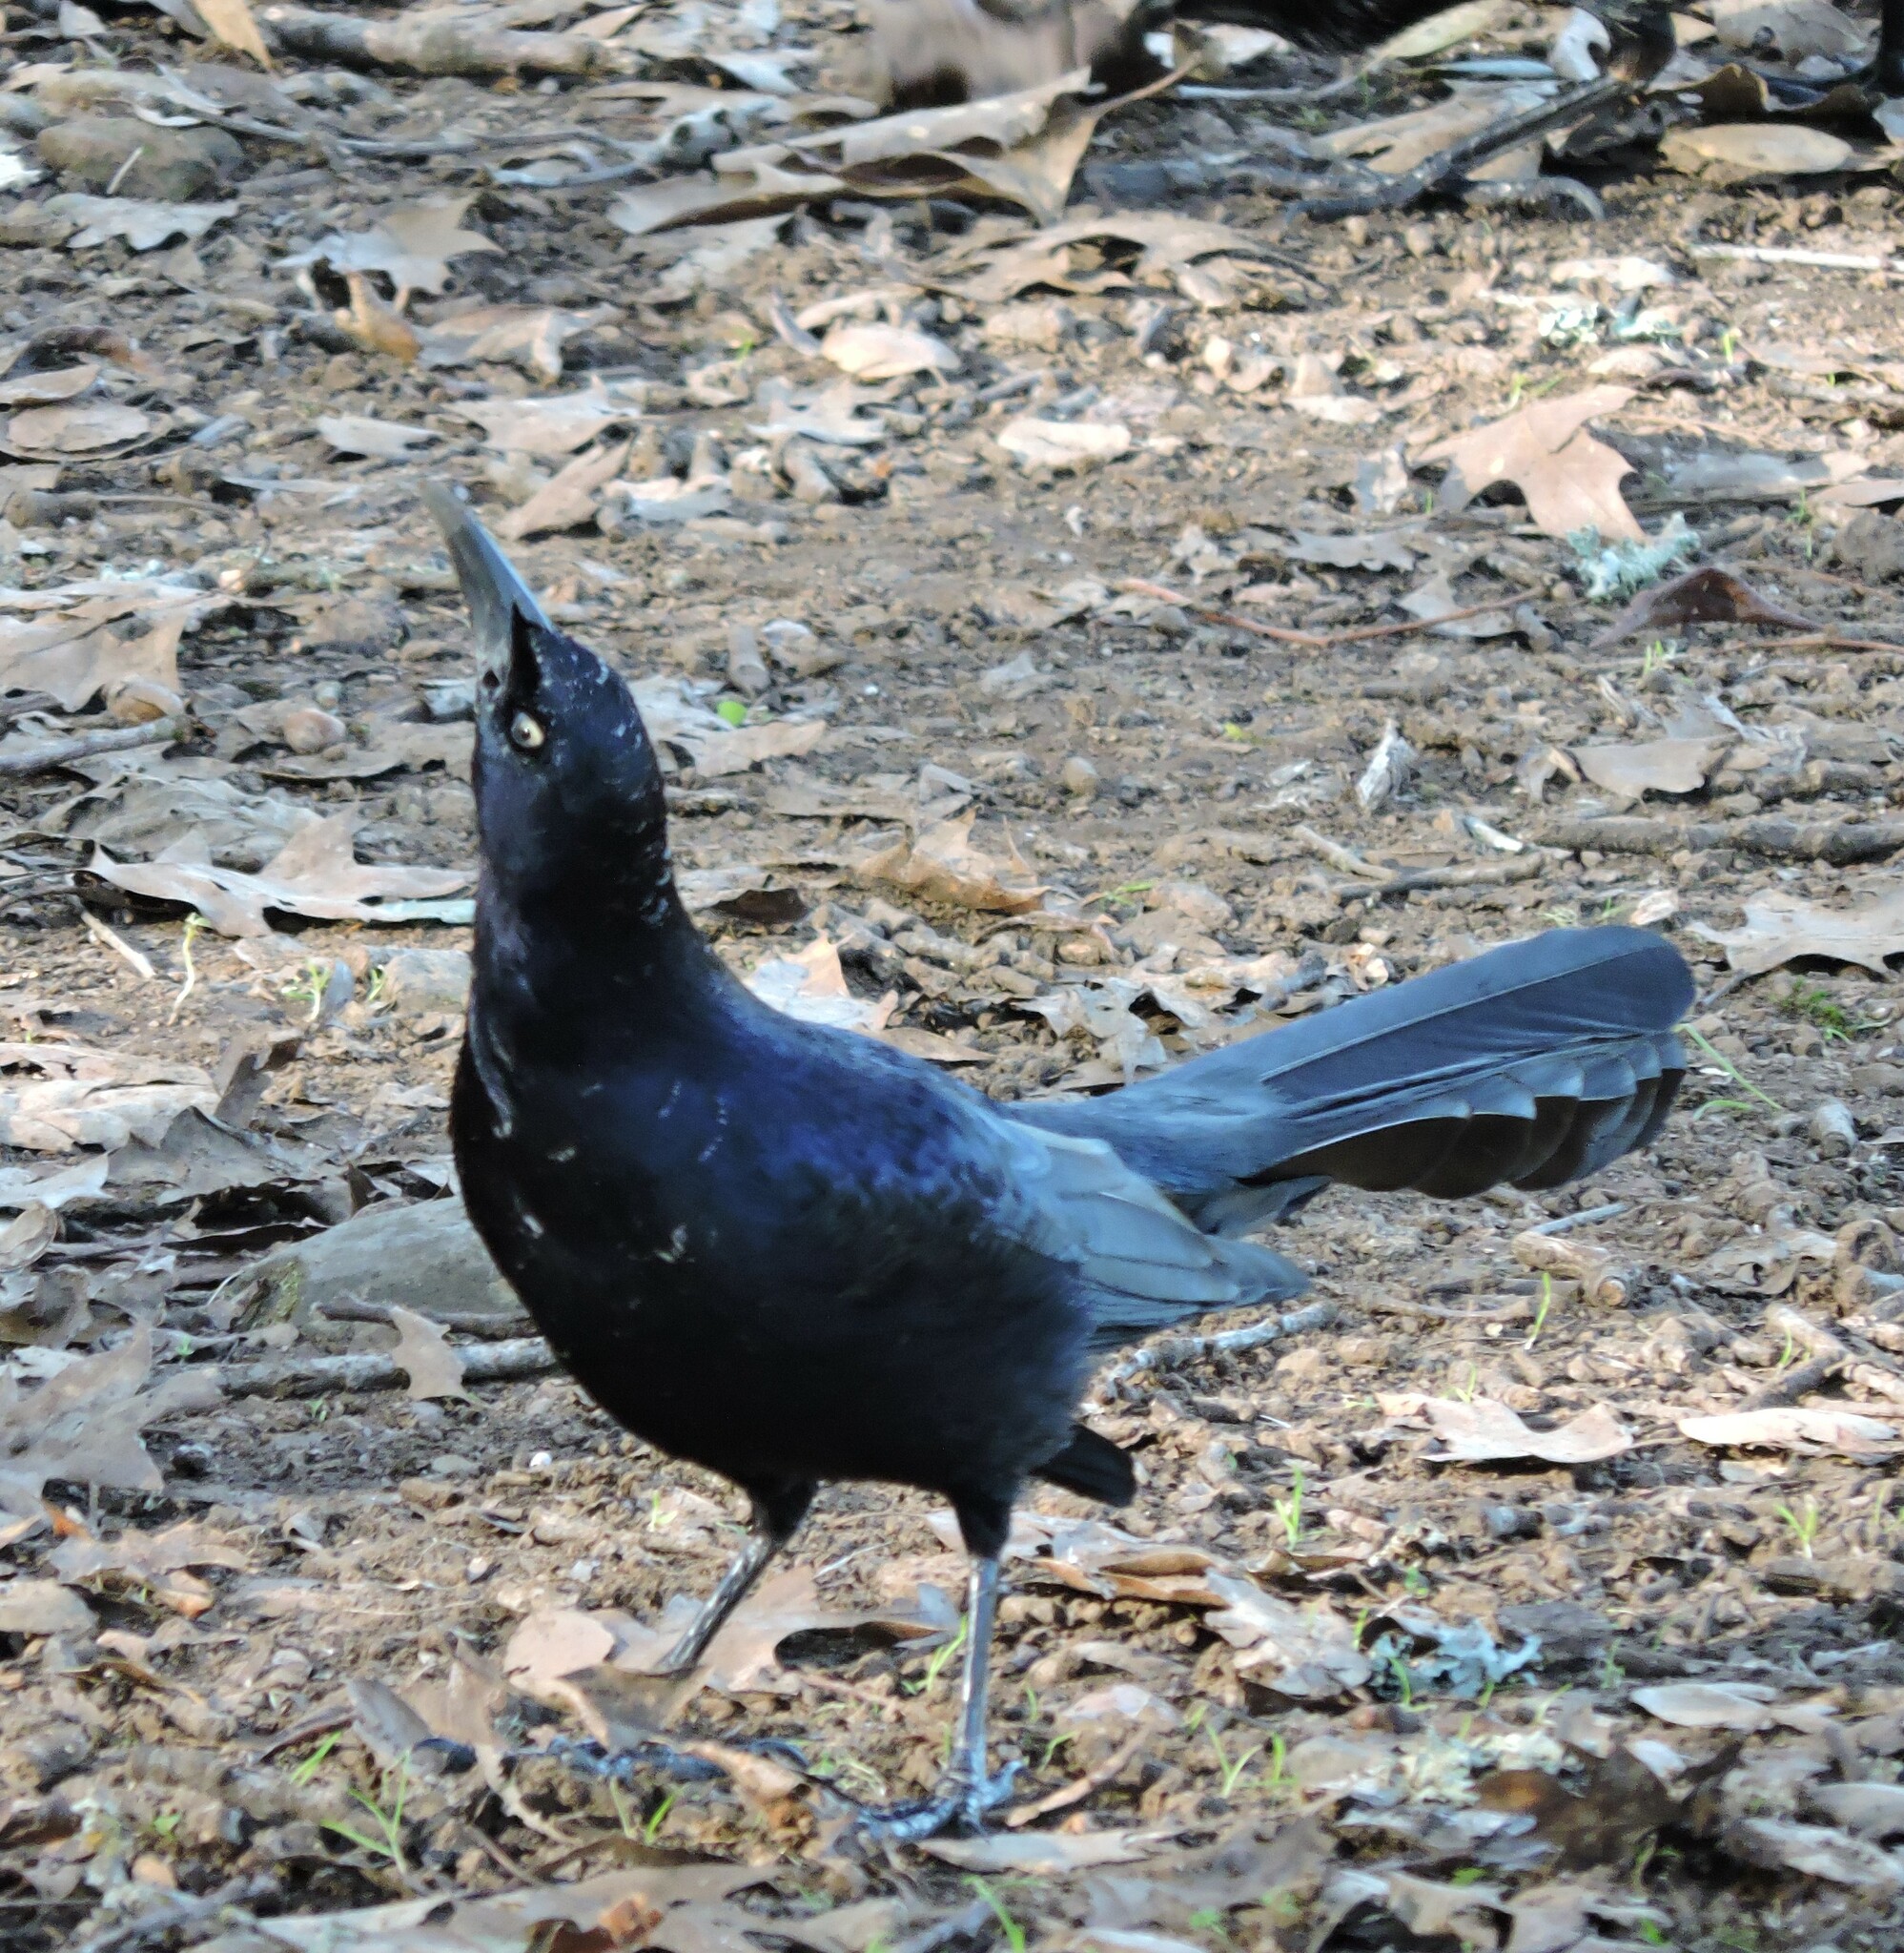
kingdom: Animalia
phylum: Chordata
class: Aves
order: Passeriformes
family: Icteridae
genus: Quiscalus
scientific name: Quiscalus mexicanus
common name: Great-tailed grackle
